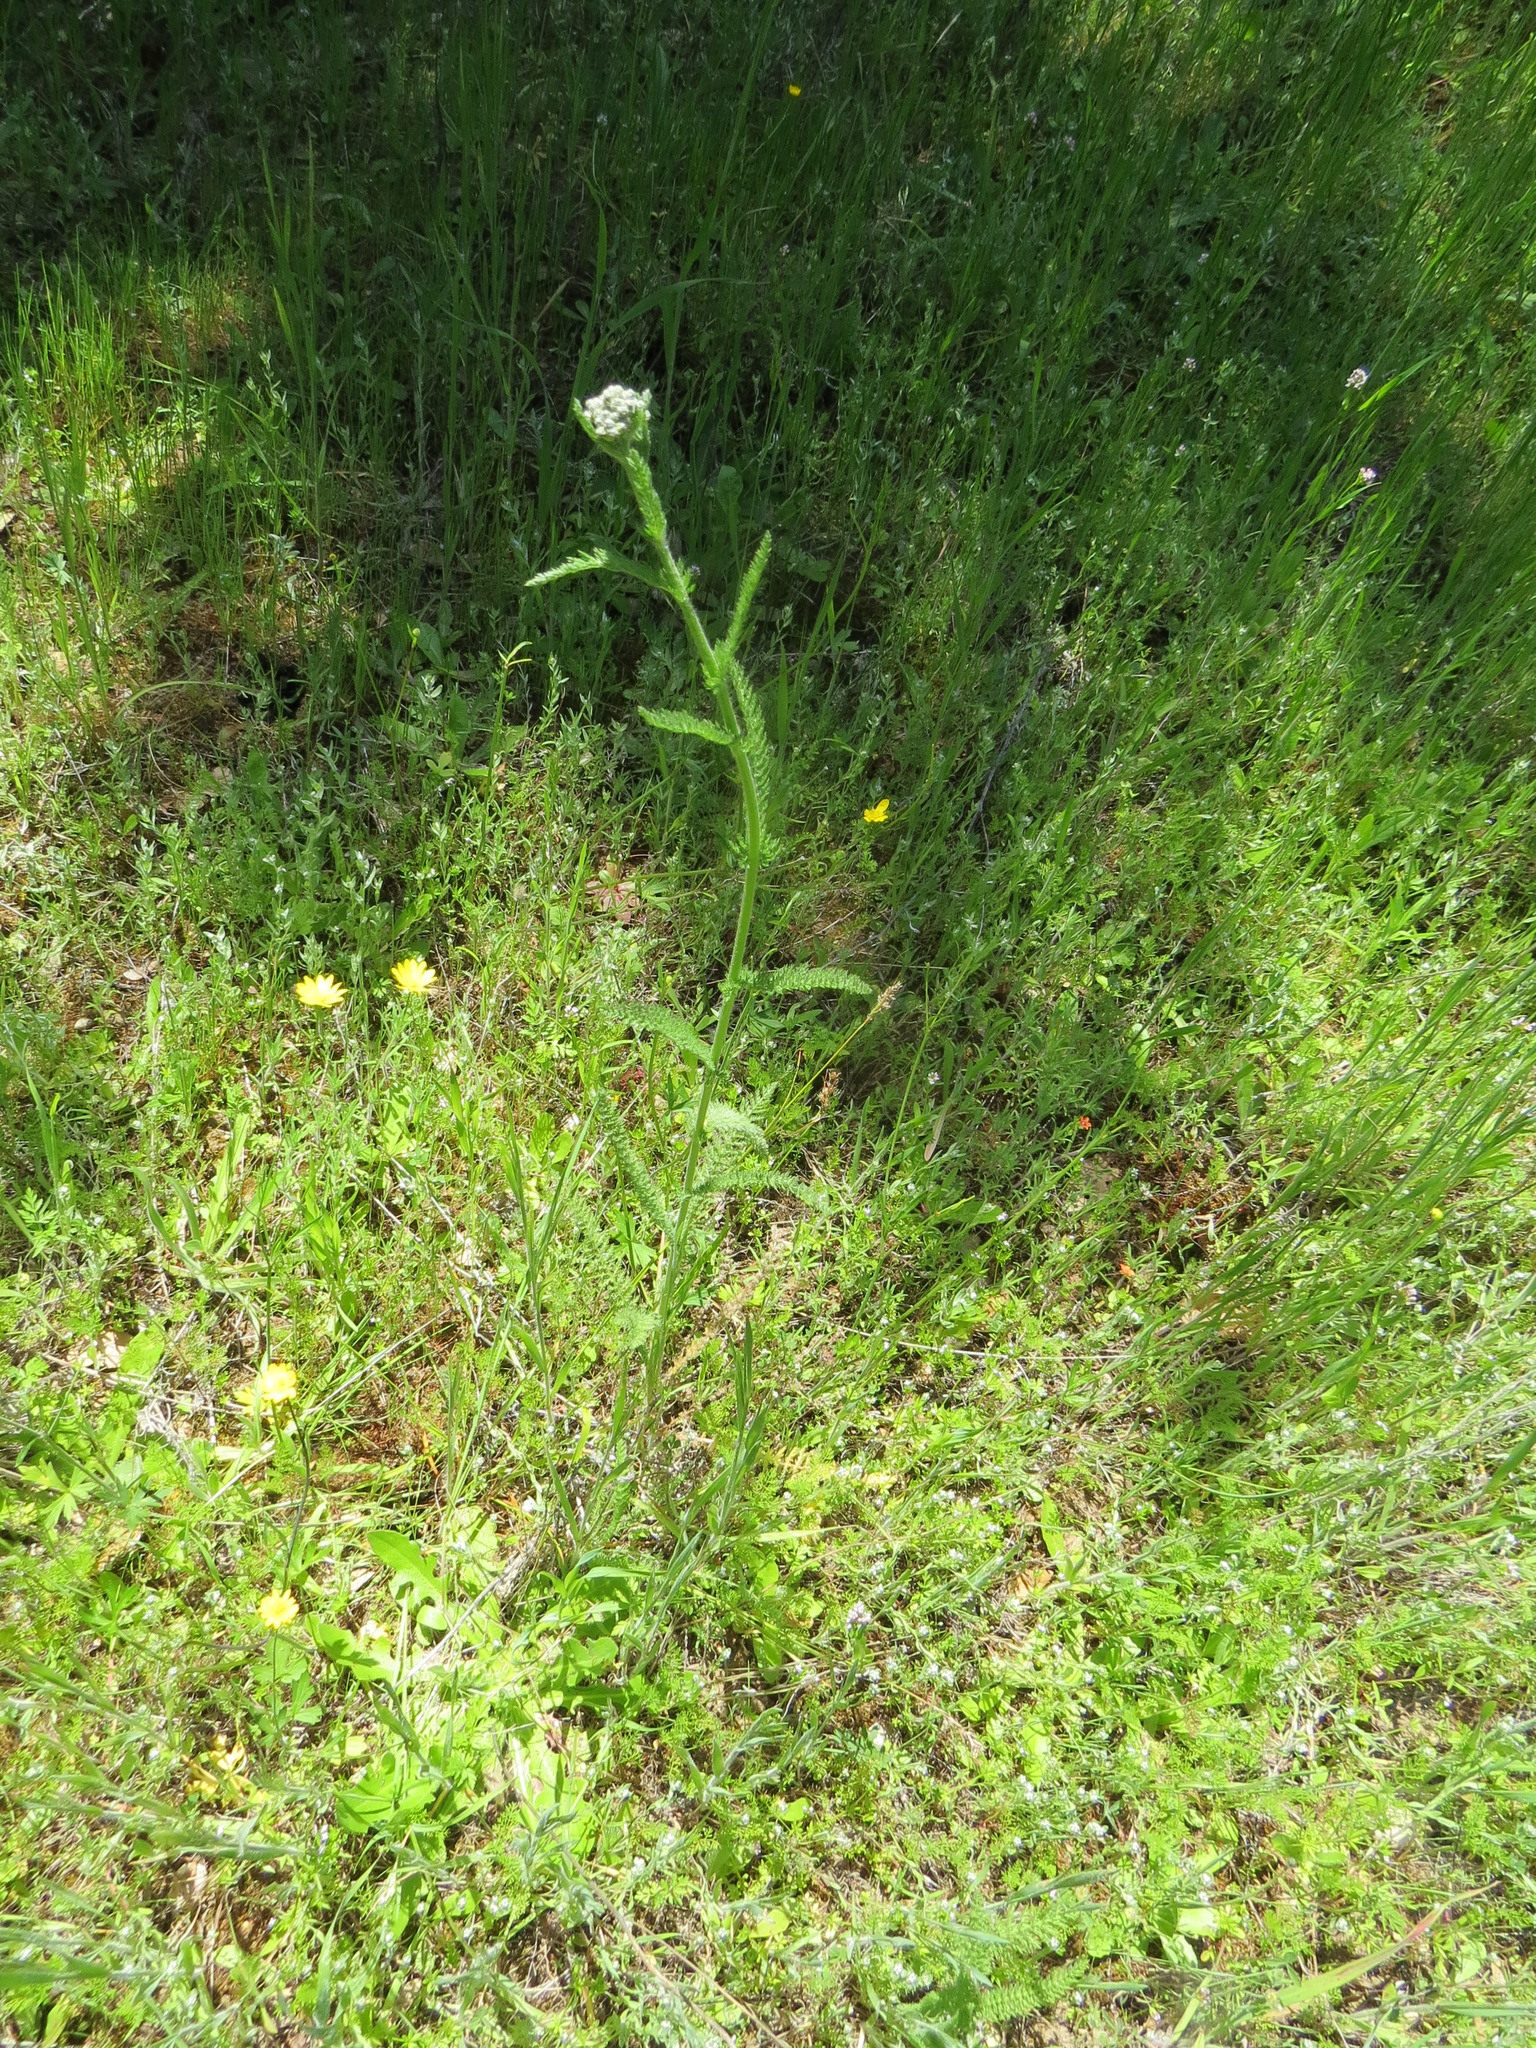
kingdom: Plantae
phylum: Tracheophyta
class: Magnoliopsida
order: Asterales
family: Asteraceae
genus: Achillea
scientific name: Achillea millefolium
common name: Yarrow
